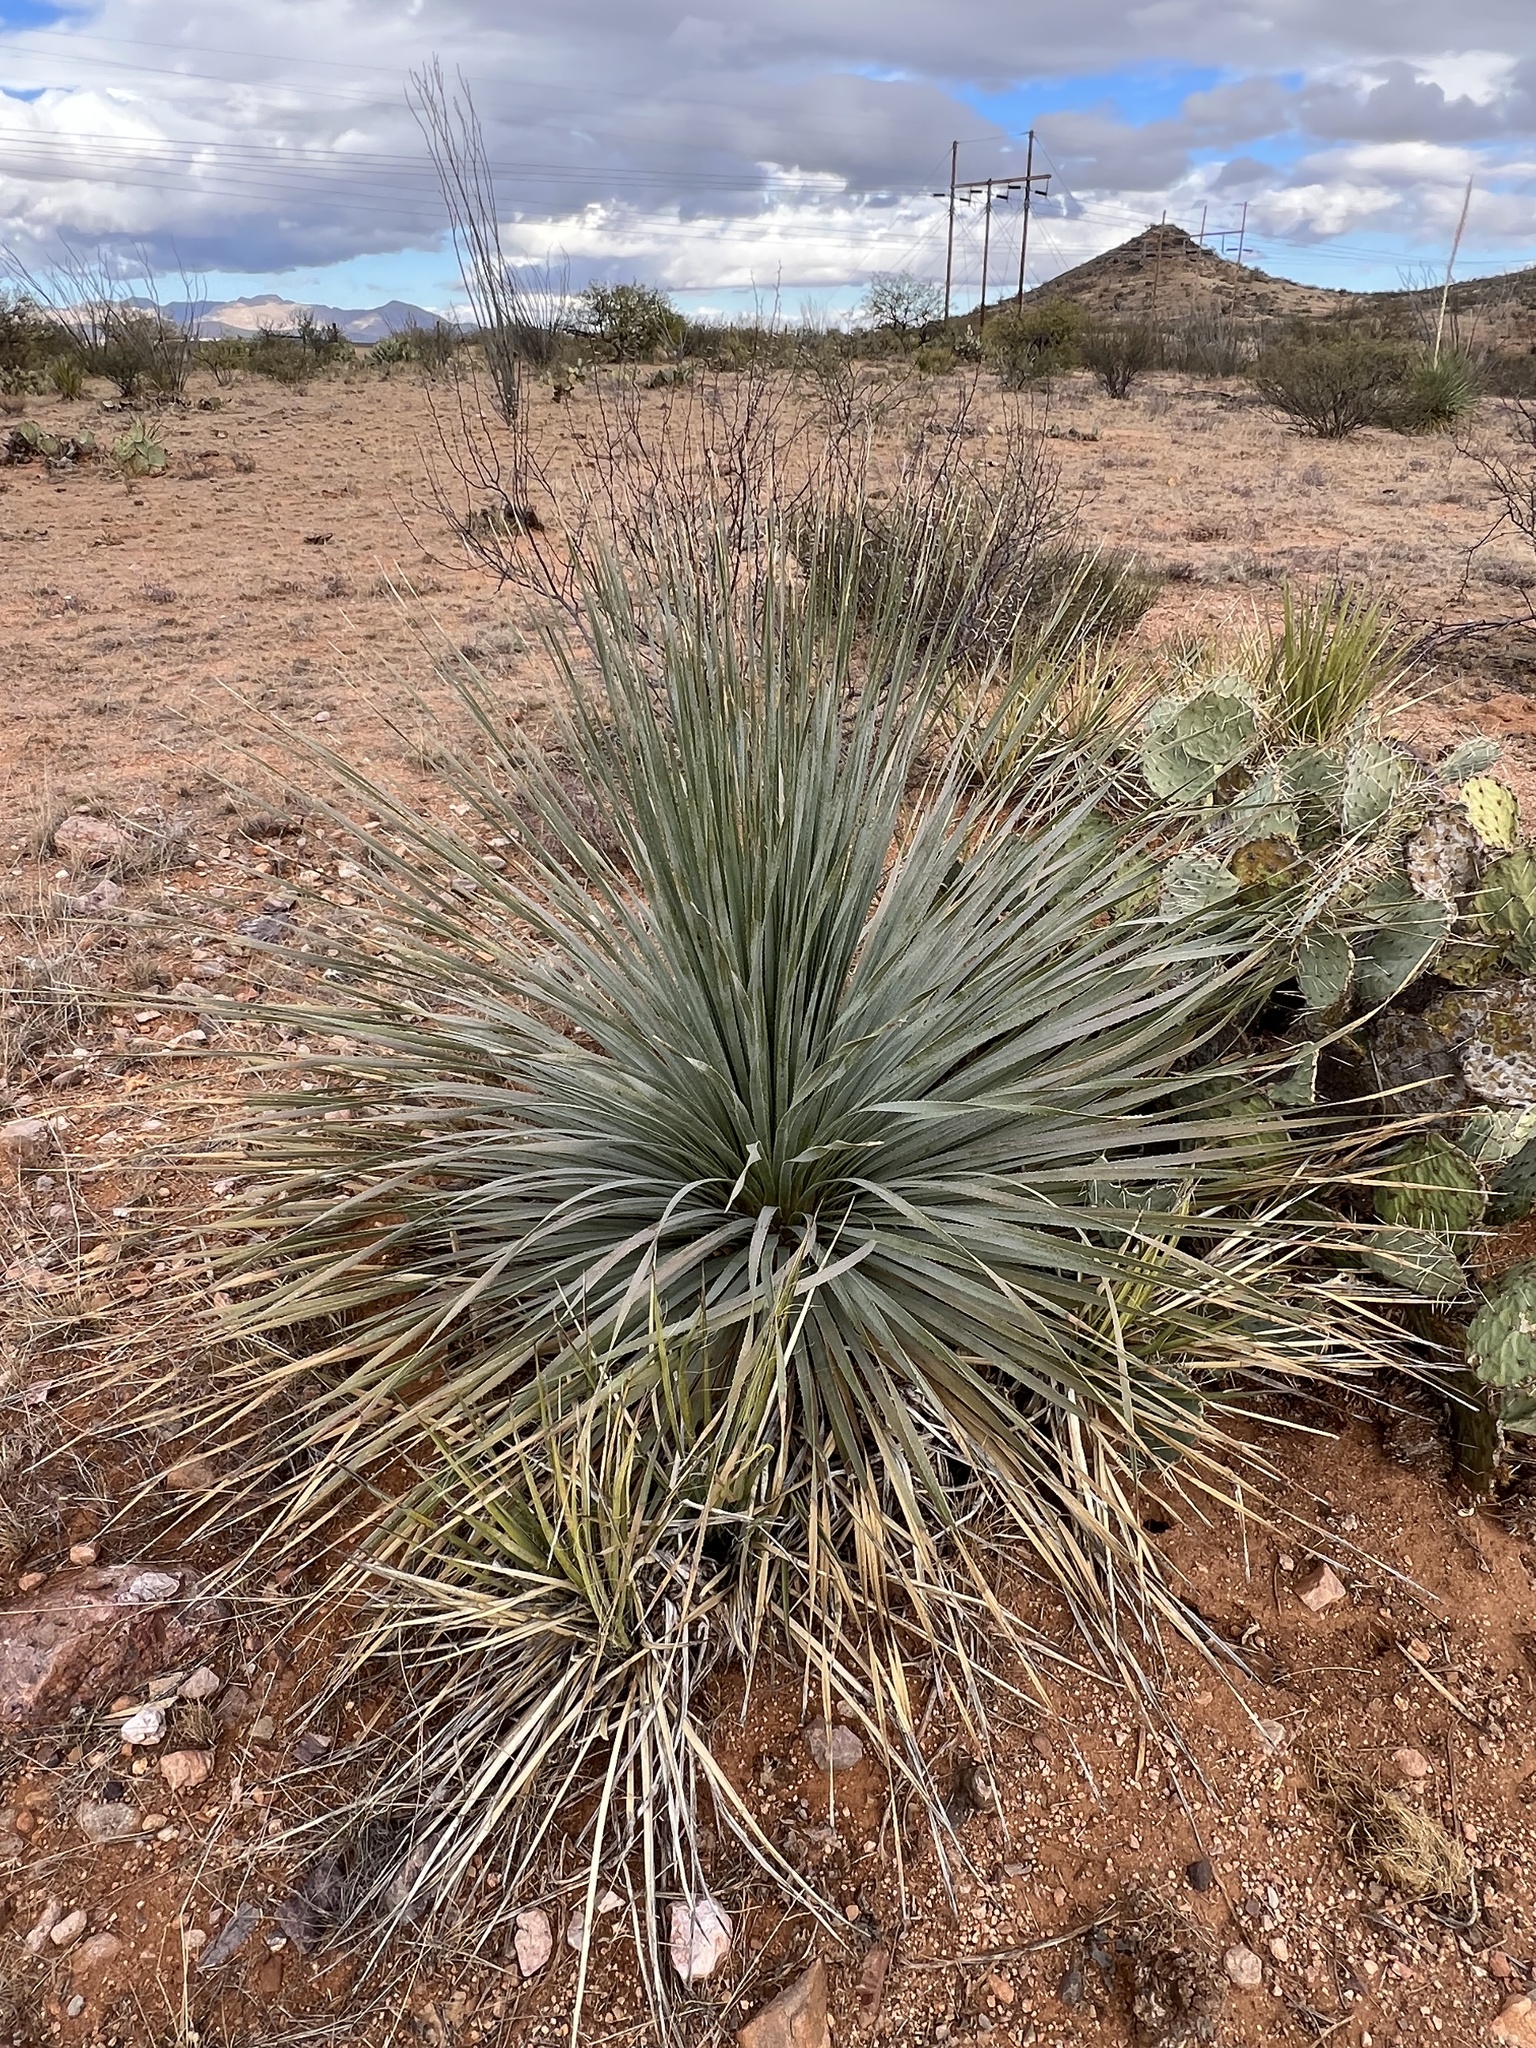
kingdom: Plantae
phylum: Tracheophyta
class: Liliopsida
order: Asparagales
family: Asparagaceae
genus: Dasylirion
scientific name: Dasylirion wheeleri
